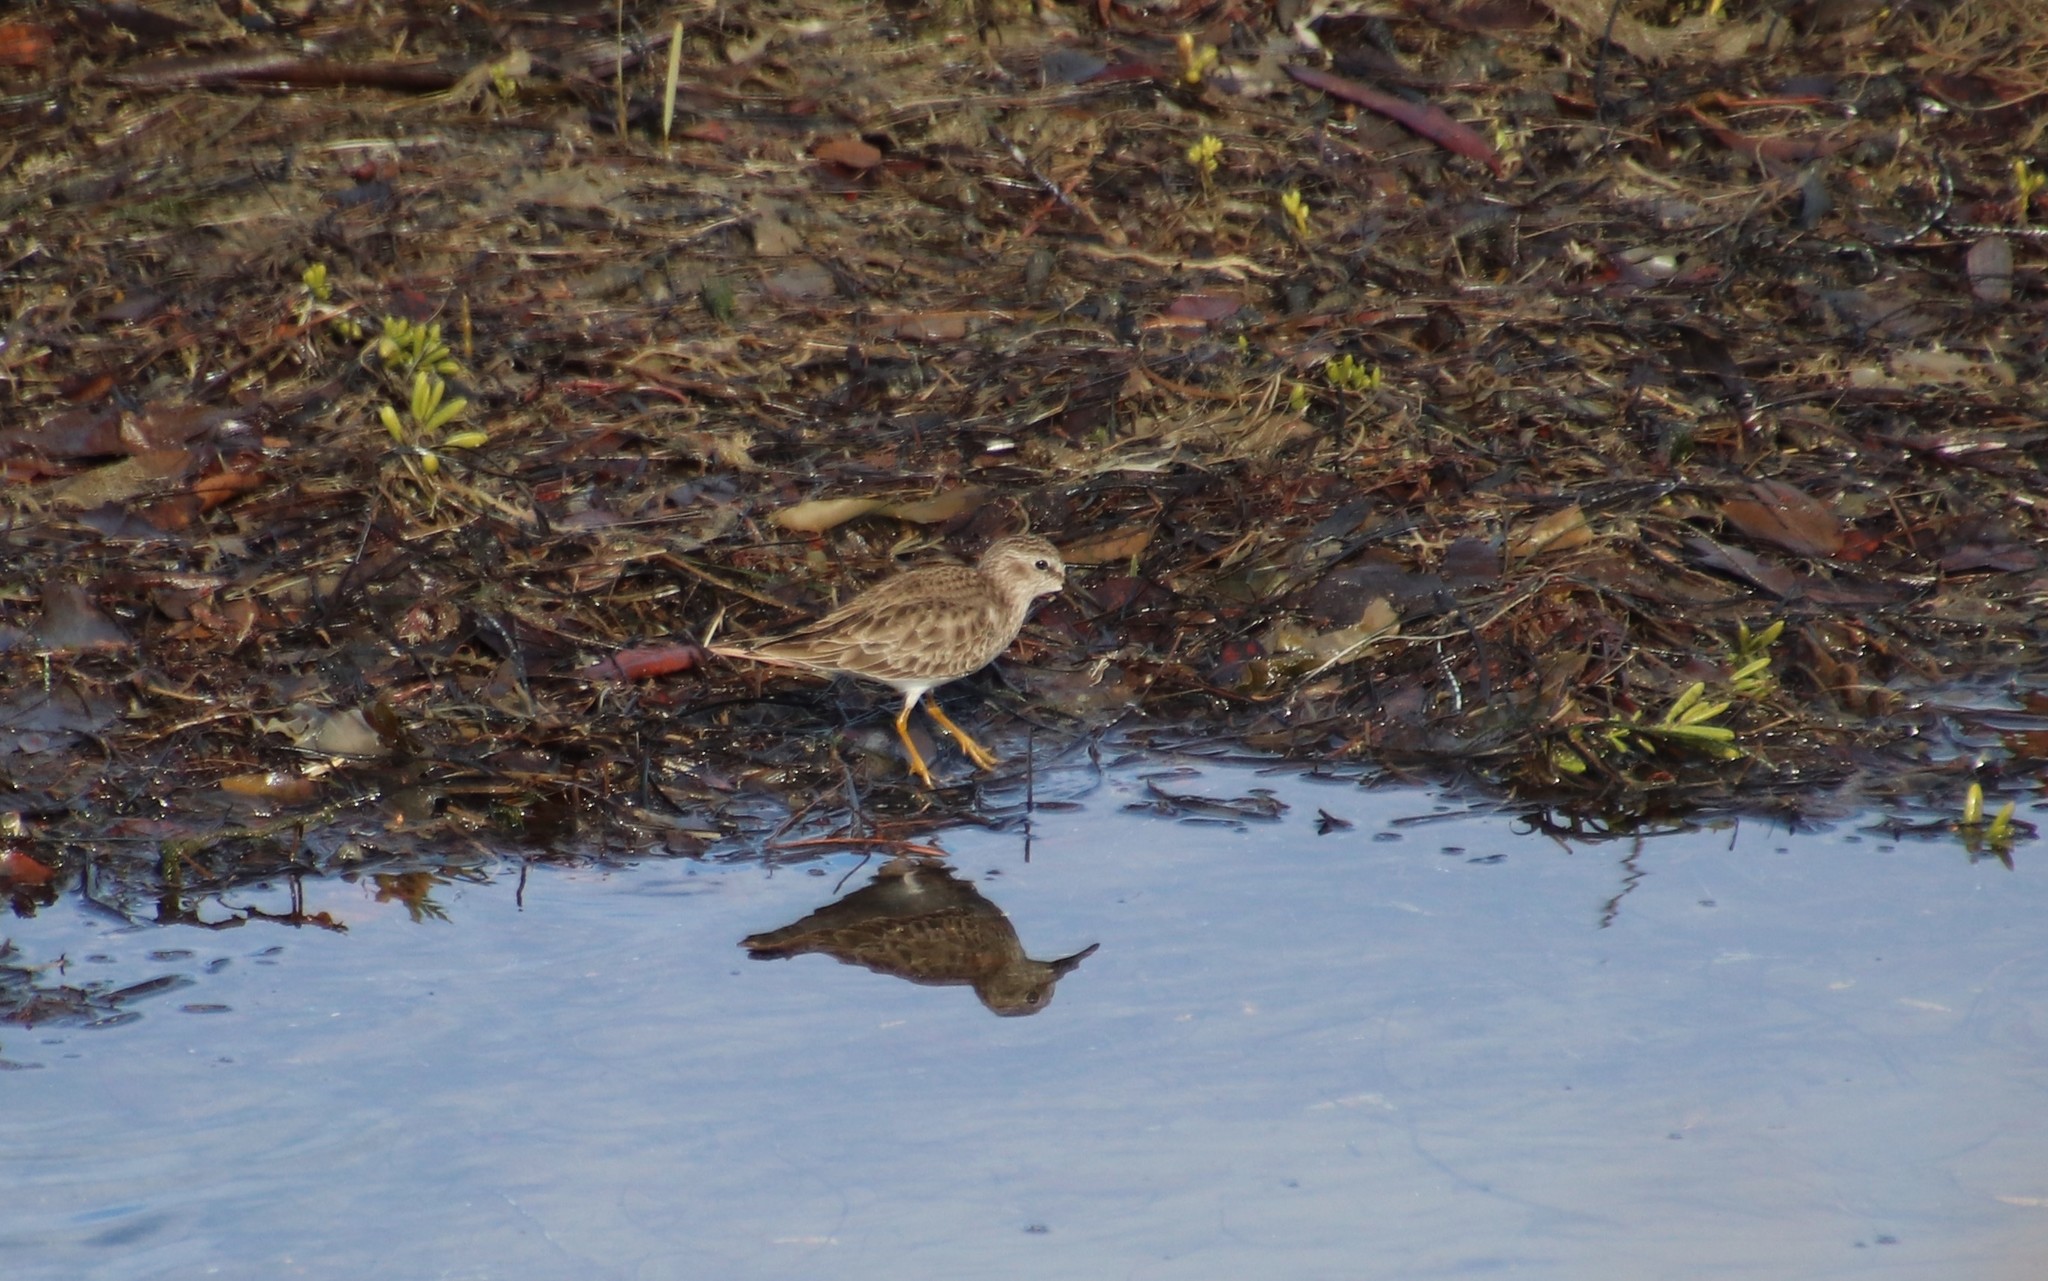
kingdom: Animalia
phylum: Chordata
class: Aves
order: Charadriiformes
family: Scolopacidae
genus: Calidris
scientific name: Calidris minutilla
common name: Least sandpiper
